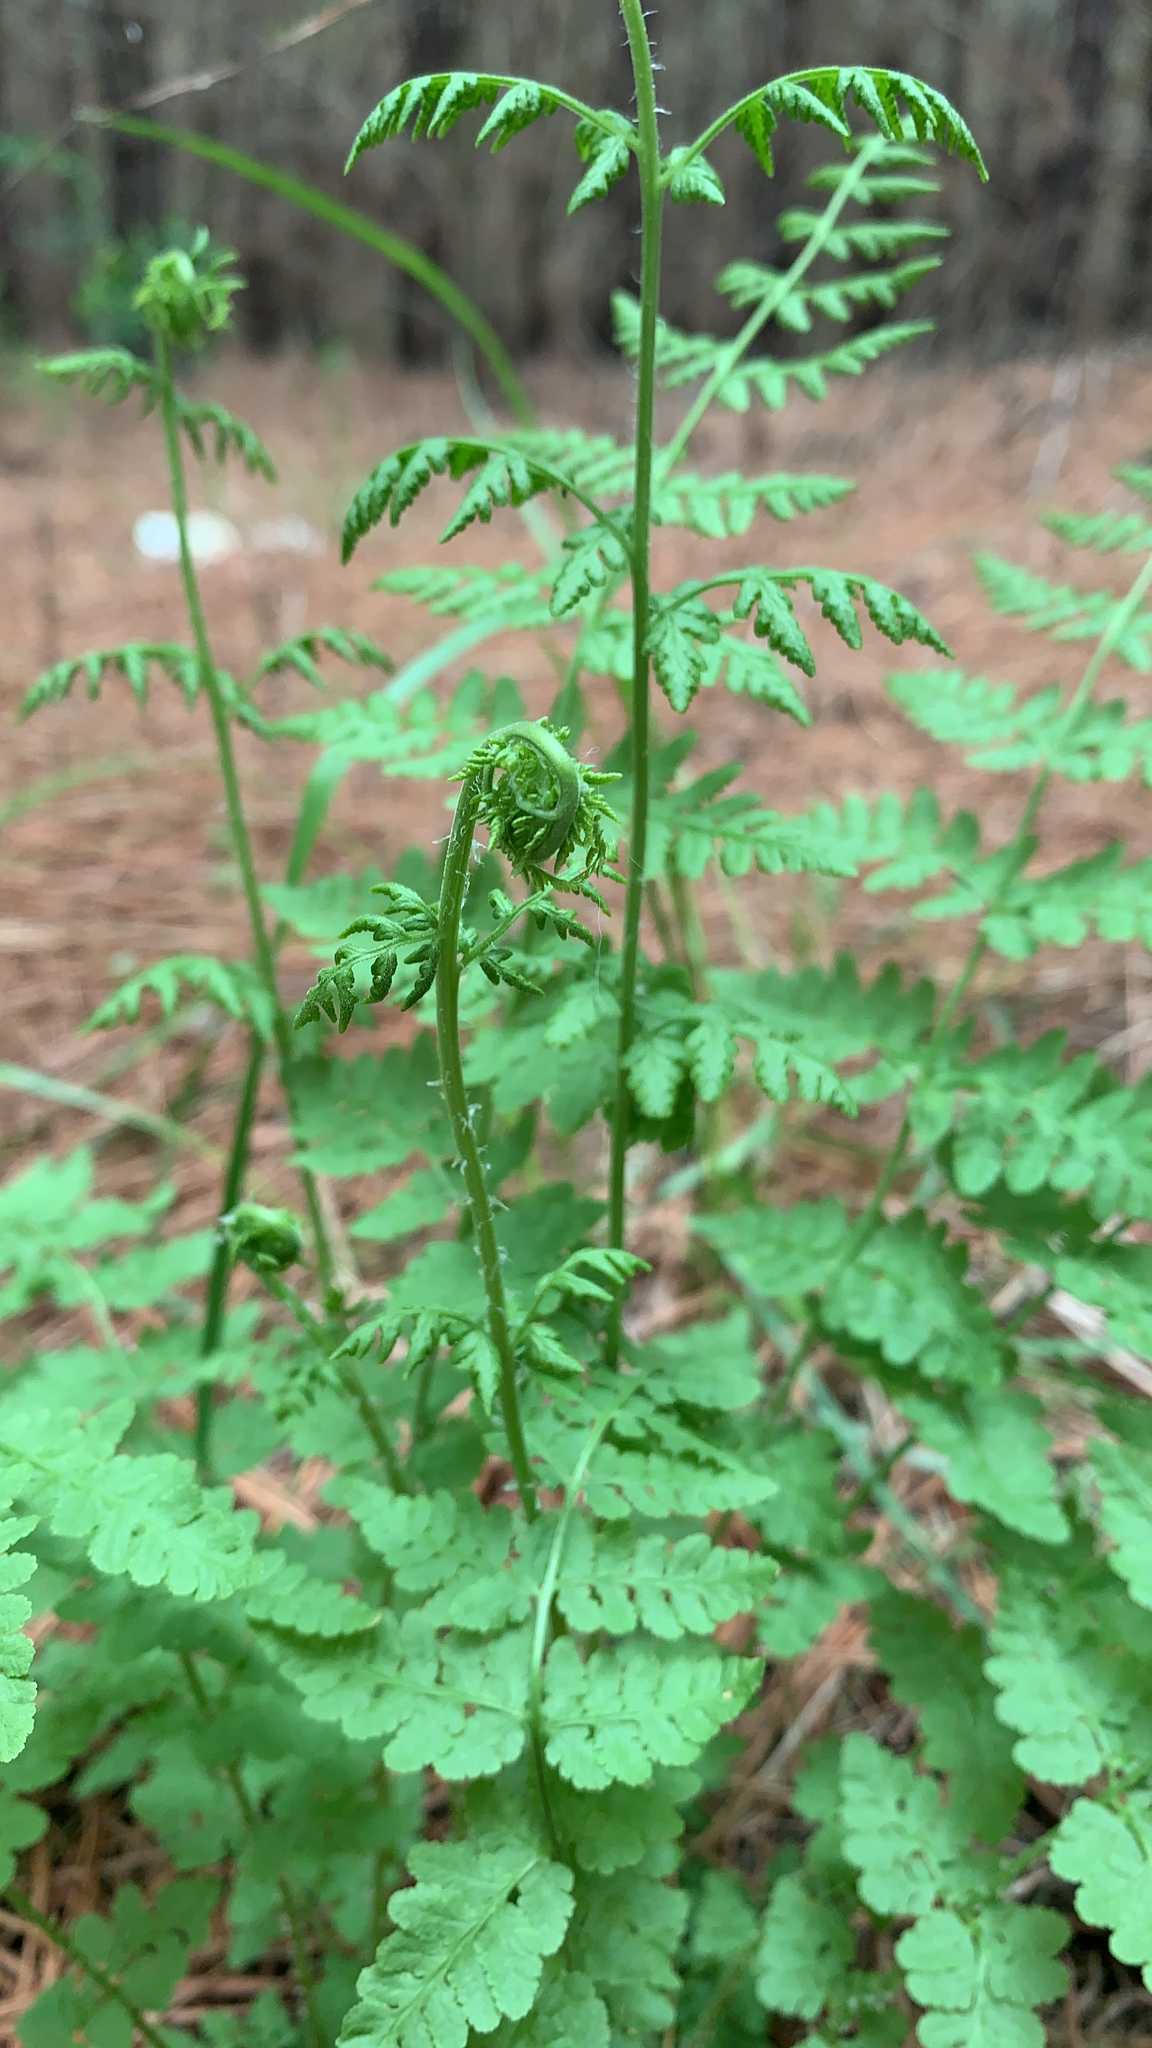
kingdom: Plantae
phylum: Tracheophyta
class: Polypodiopsida
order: Polypodiales
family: Woodsiaceae
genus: Physematium
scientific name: Physematium obtusum
